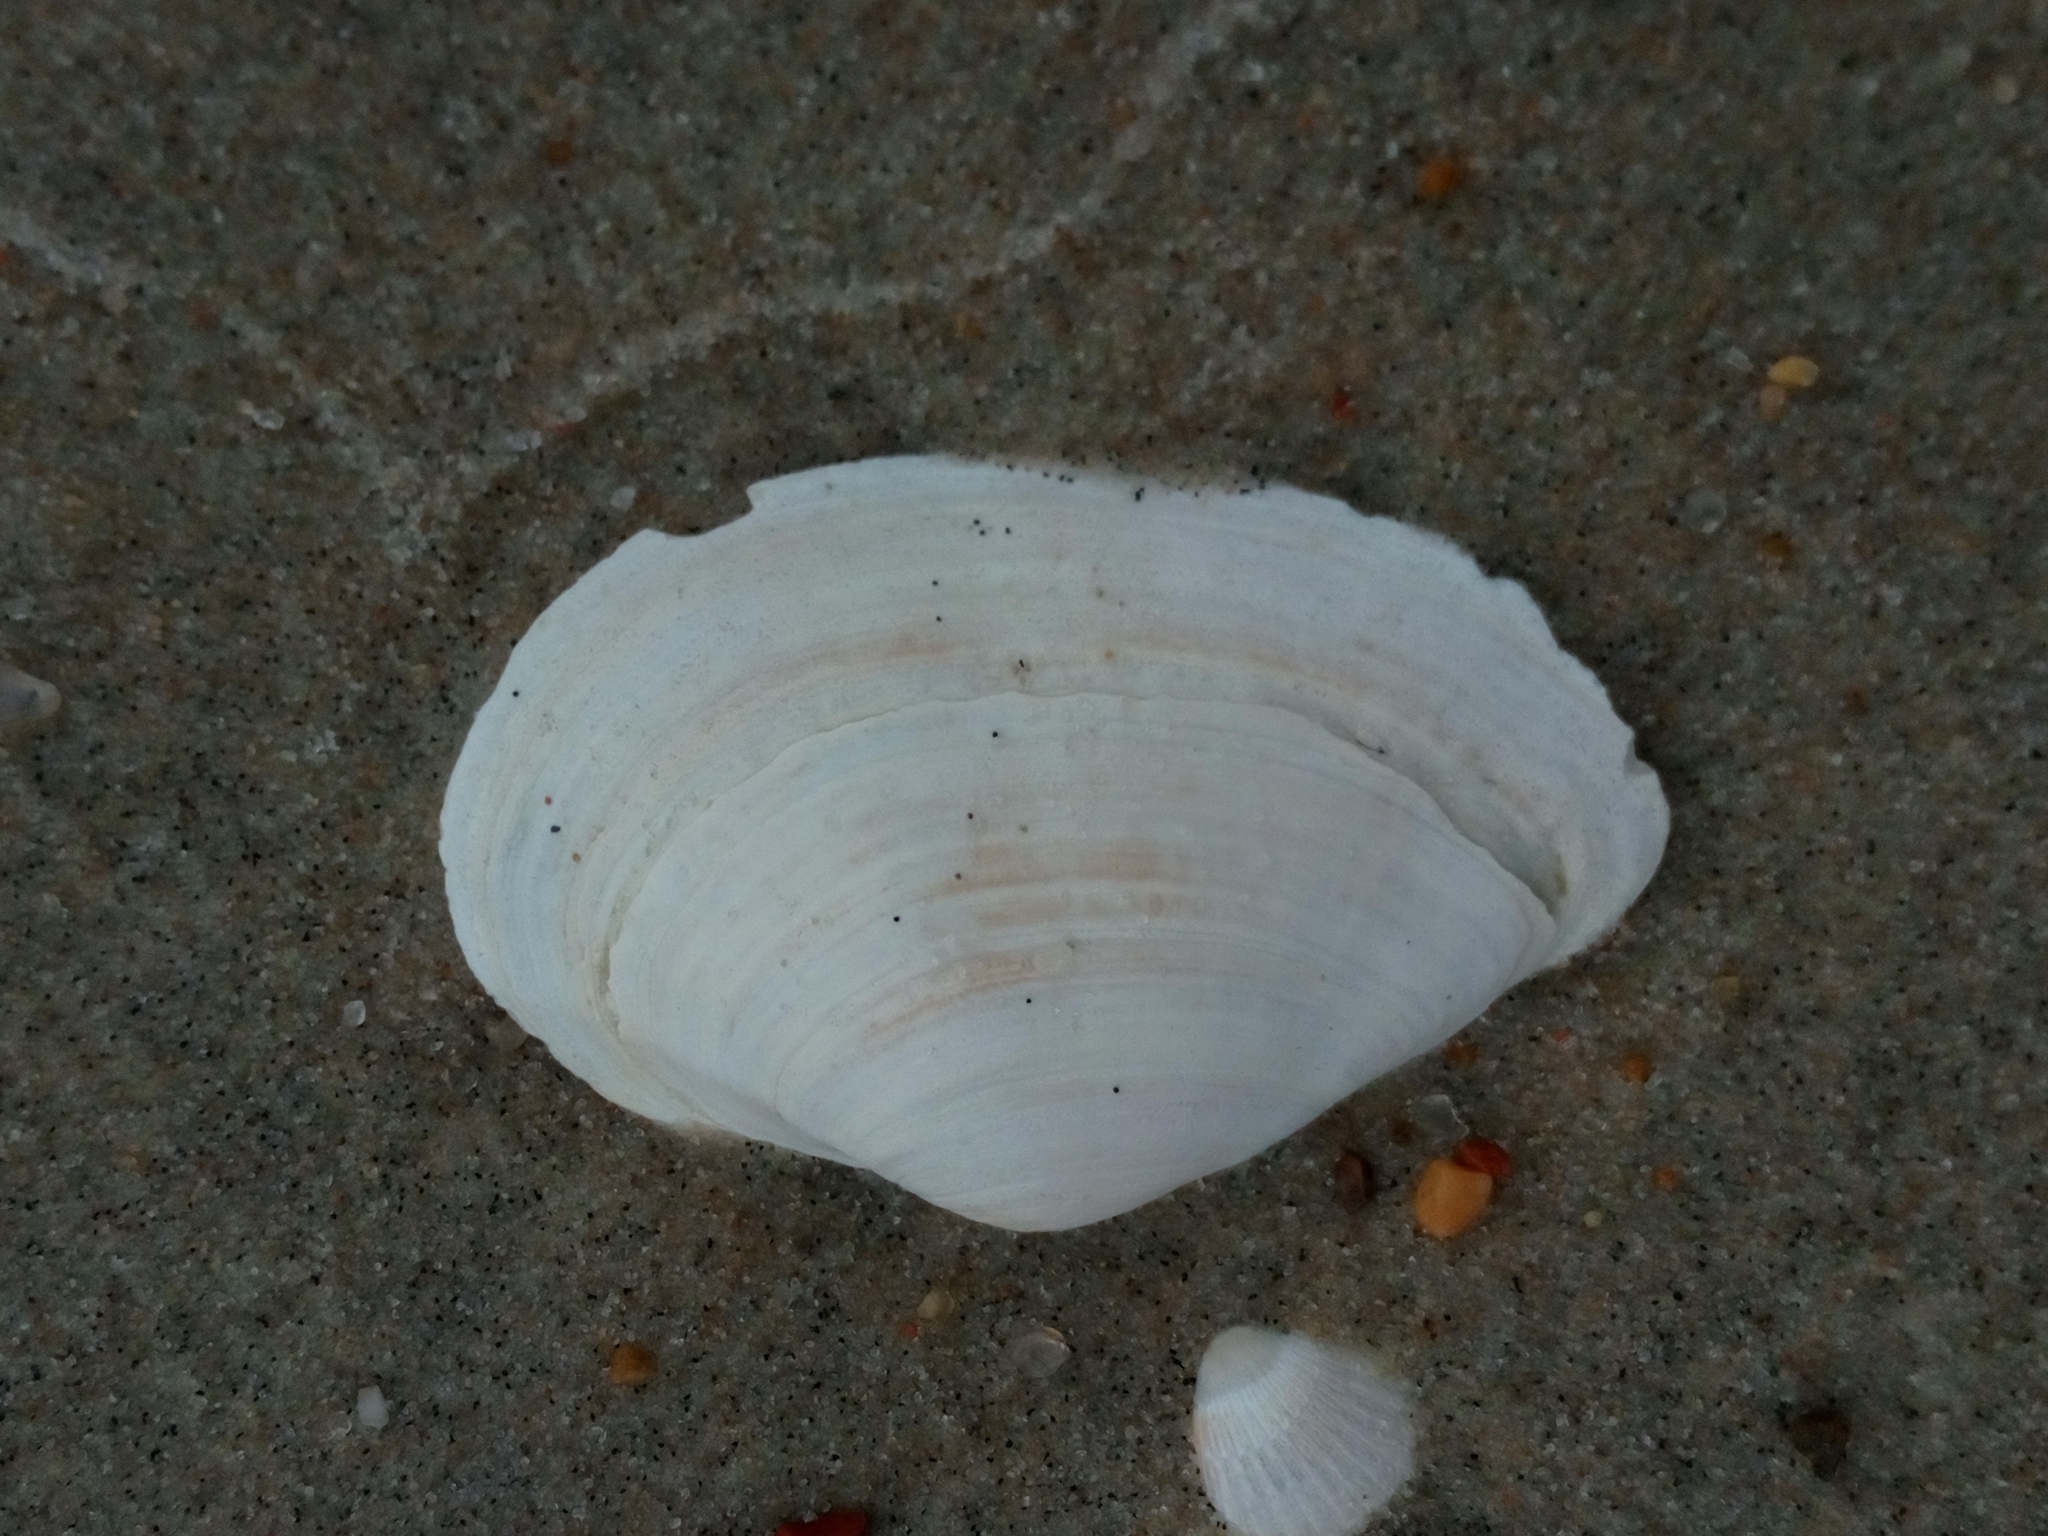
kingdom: Animalia
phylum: Mollusca
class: Bivalvia
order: Myida
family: Myidae
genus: Mya
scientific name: Mya arenaria
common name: Soft-shelled clam
